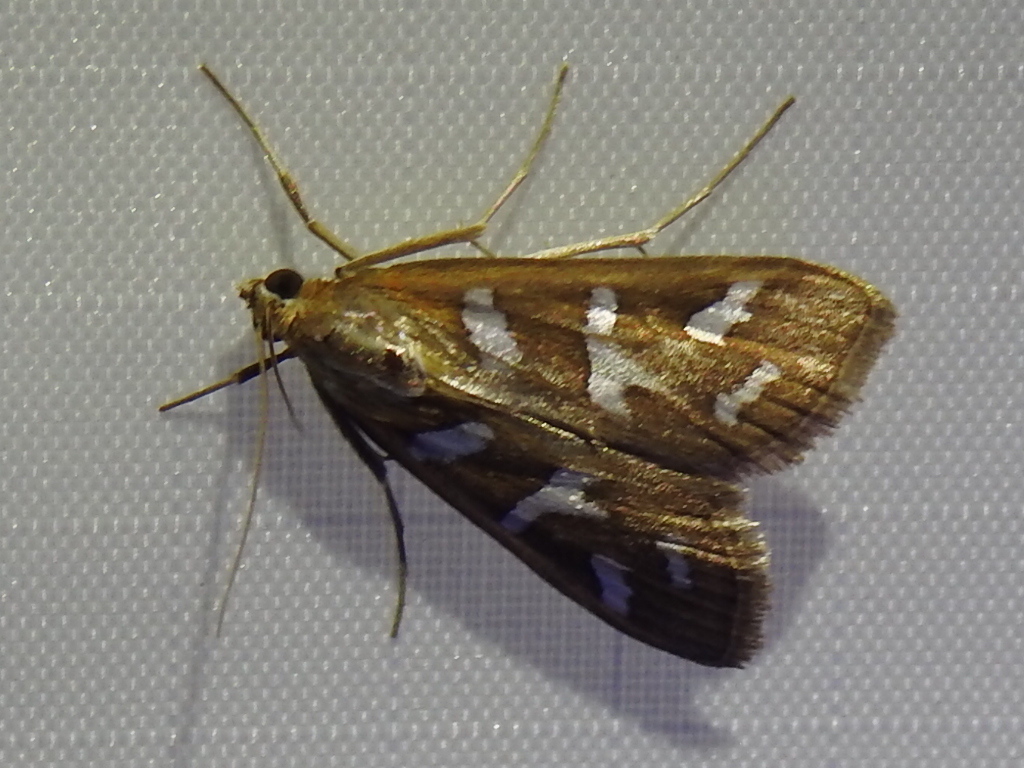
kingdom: Animalia
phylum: Arthropoda
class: Insecta
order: Lepidoptera
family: Crambidae
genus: Diastictis
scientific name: Diastictis fracturalis
